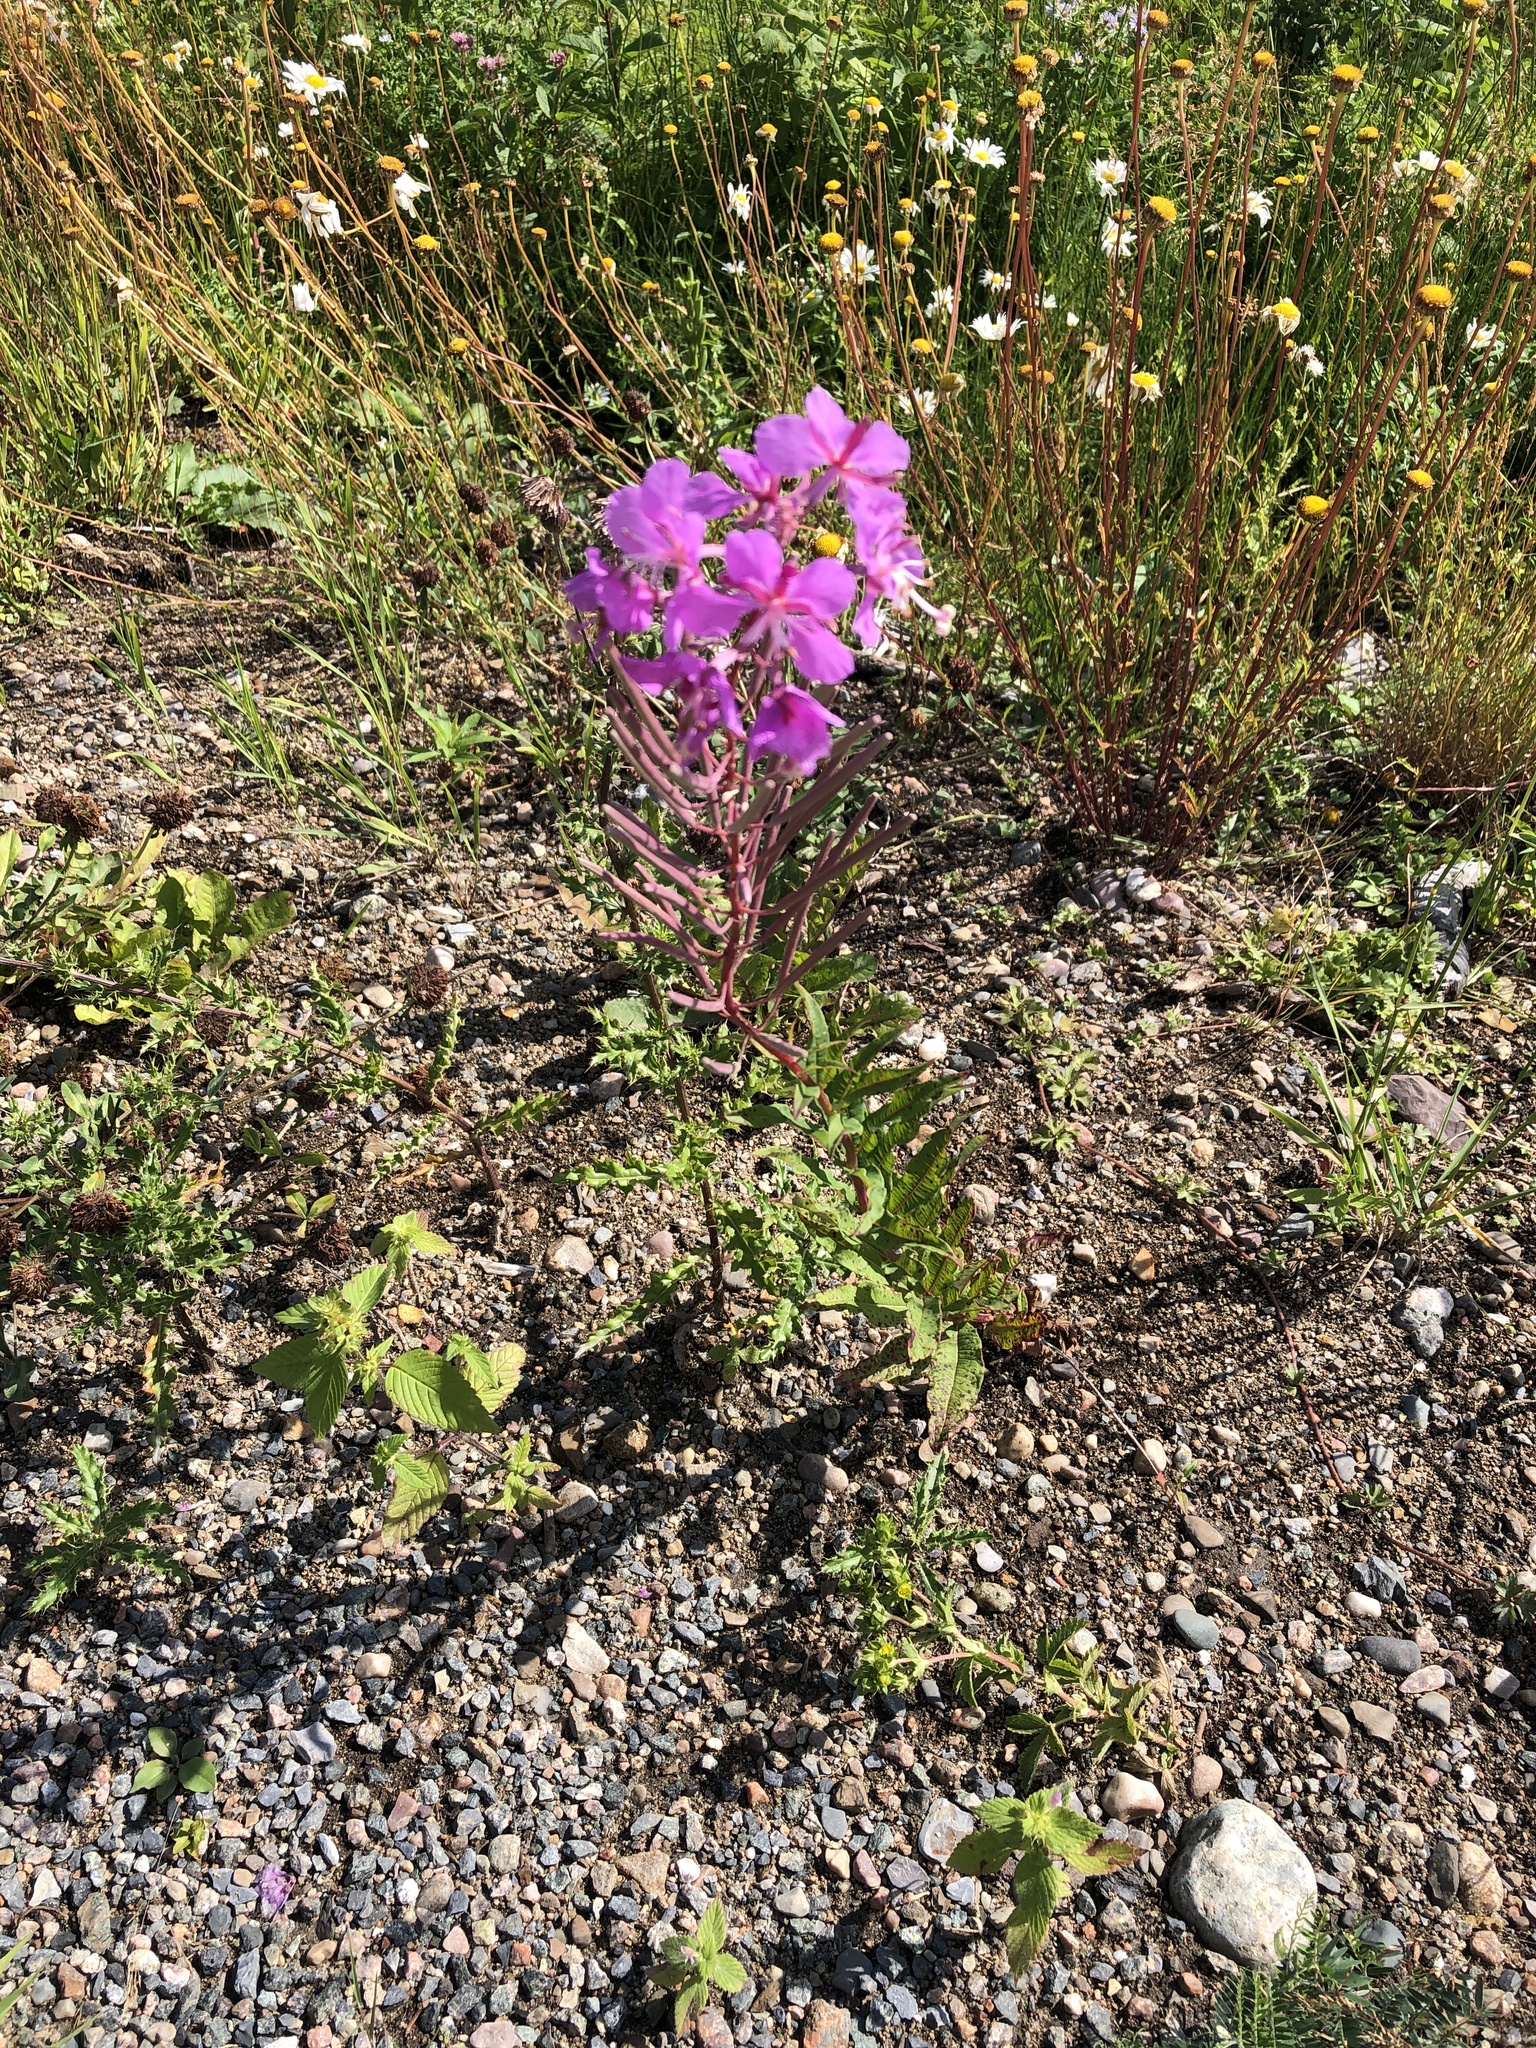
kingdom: Plantae
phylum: Tracheophyta
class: Magnoliopsida
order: Myrtales
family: Onagraceae
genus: Chamaenerion
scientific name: Chamaenerion angustifolium
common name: Fireweed
